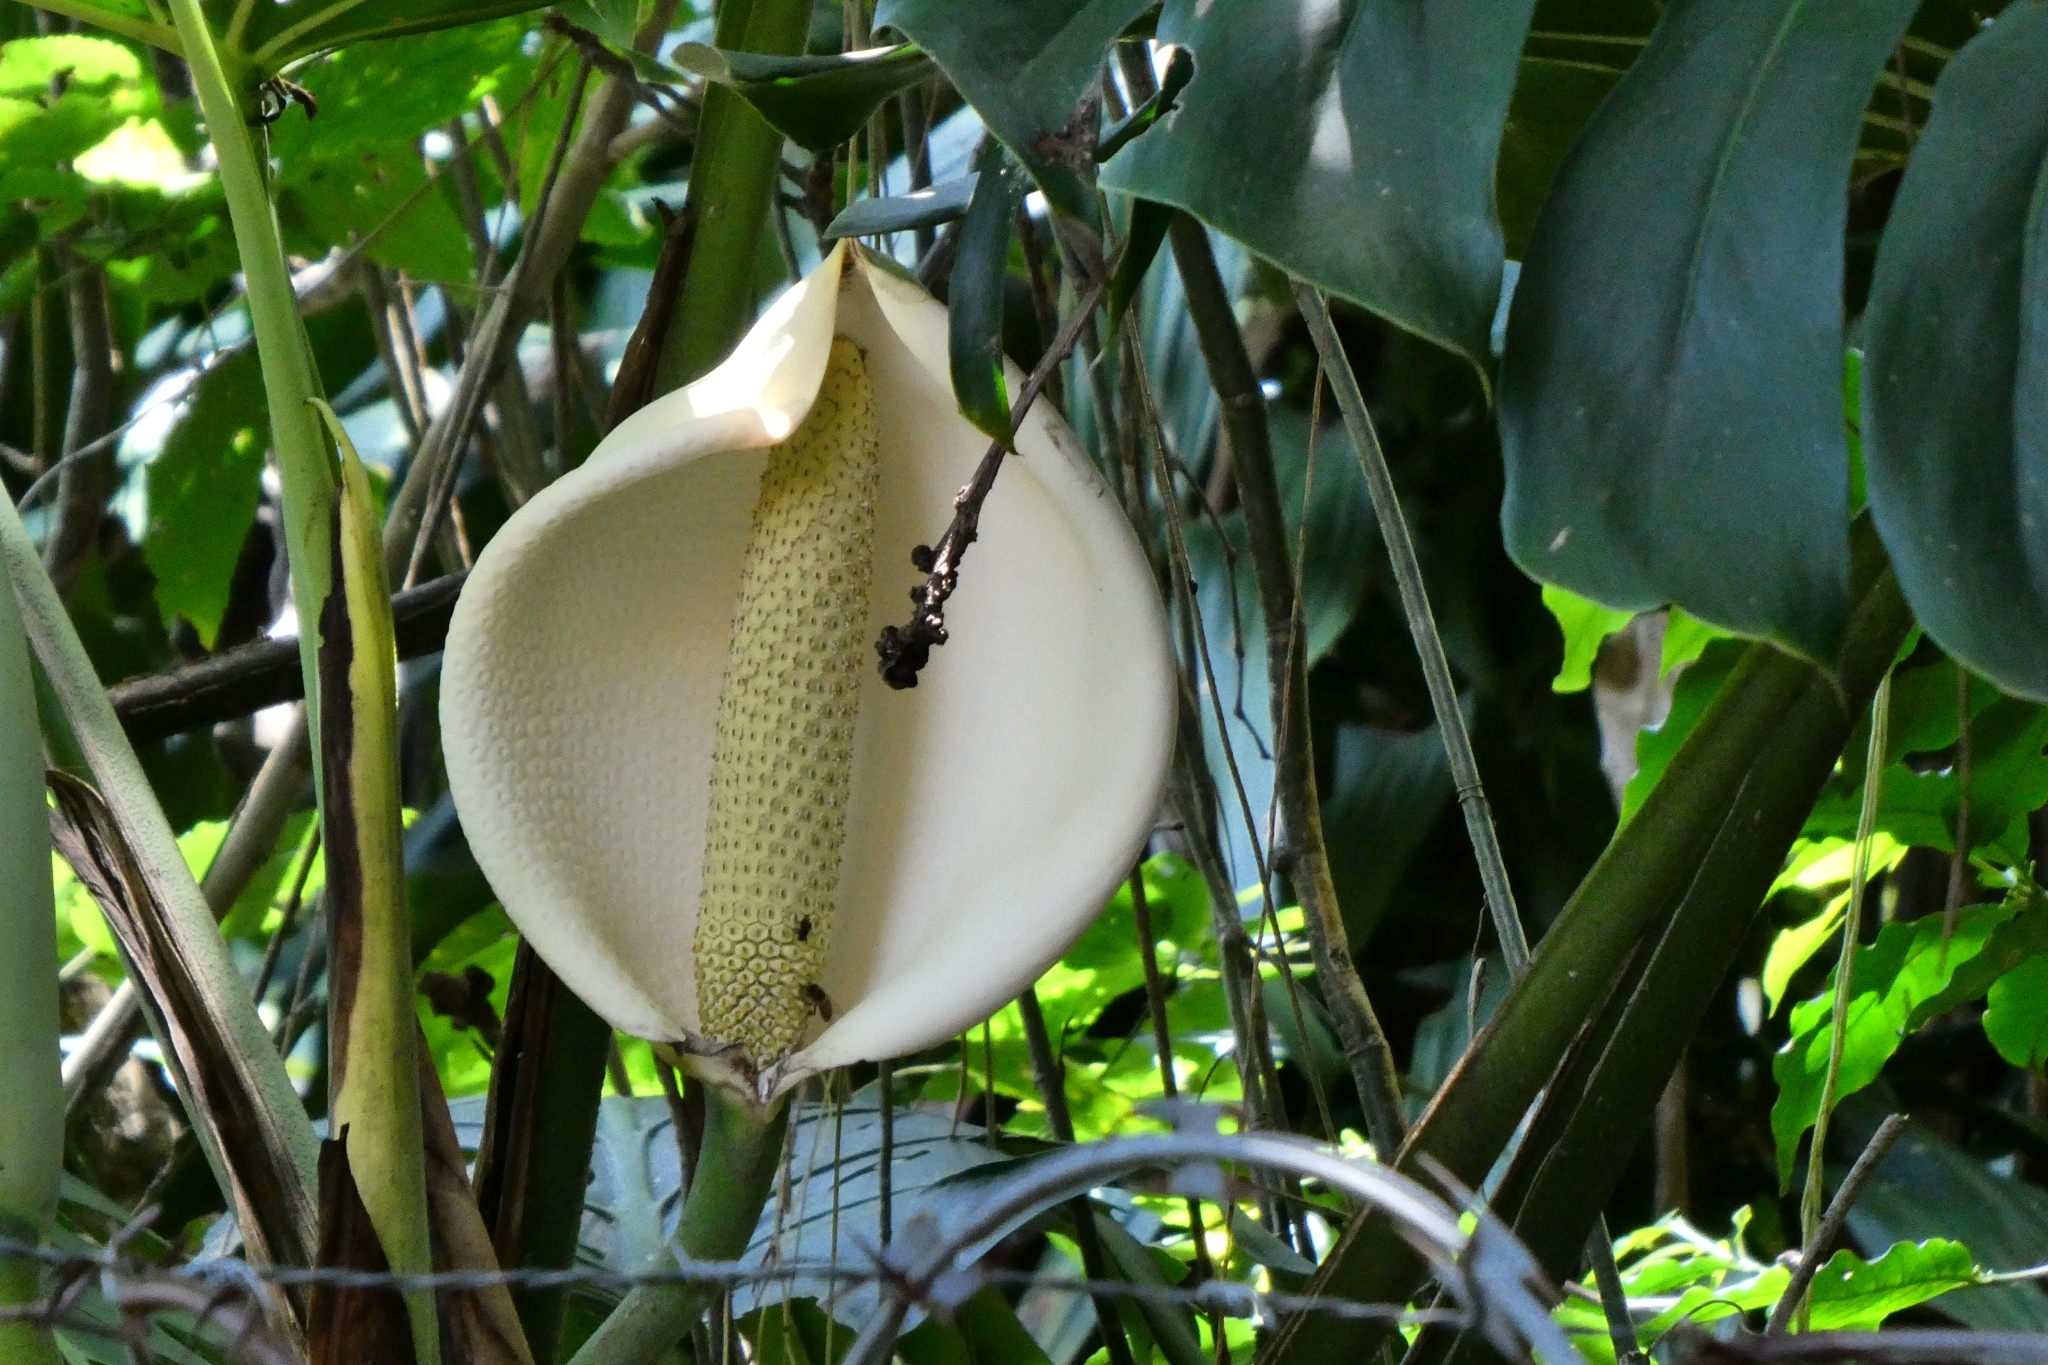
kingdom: Plantae
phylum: Tracheophyta
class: Liliopsida
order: Alismatales
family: Araceae
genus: Monstera
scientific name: Monstera deliciosa
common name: Cut-leaf-philodendron
